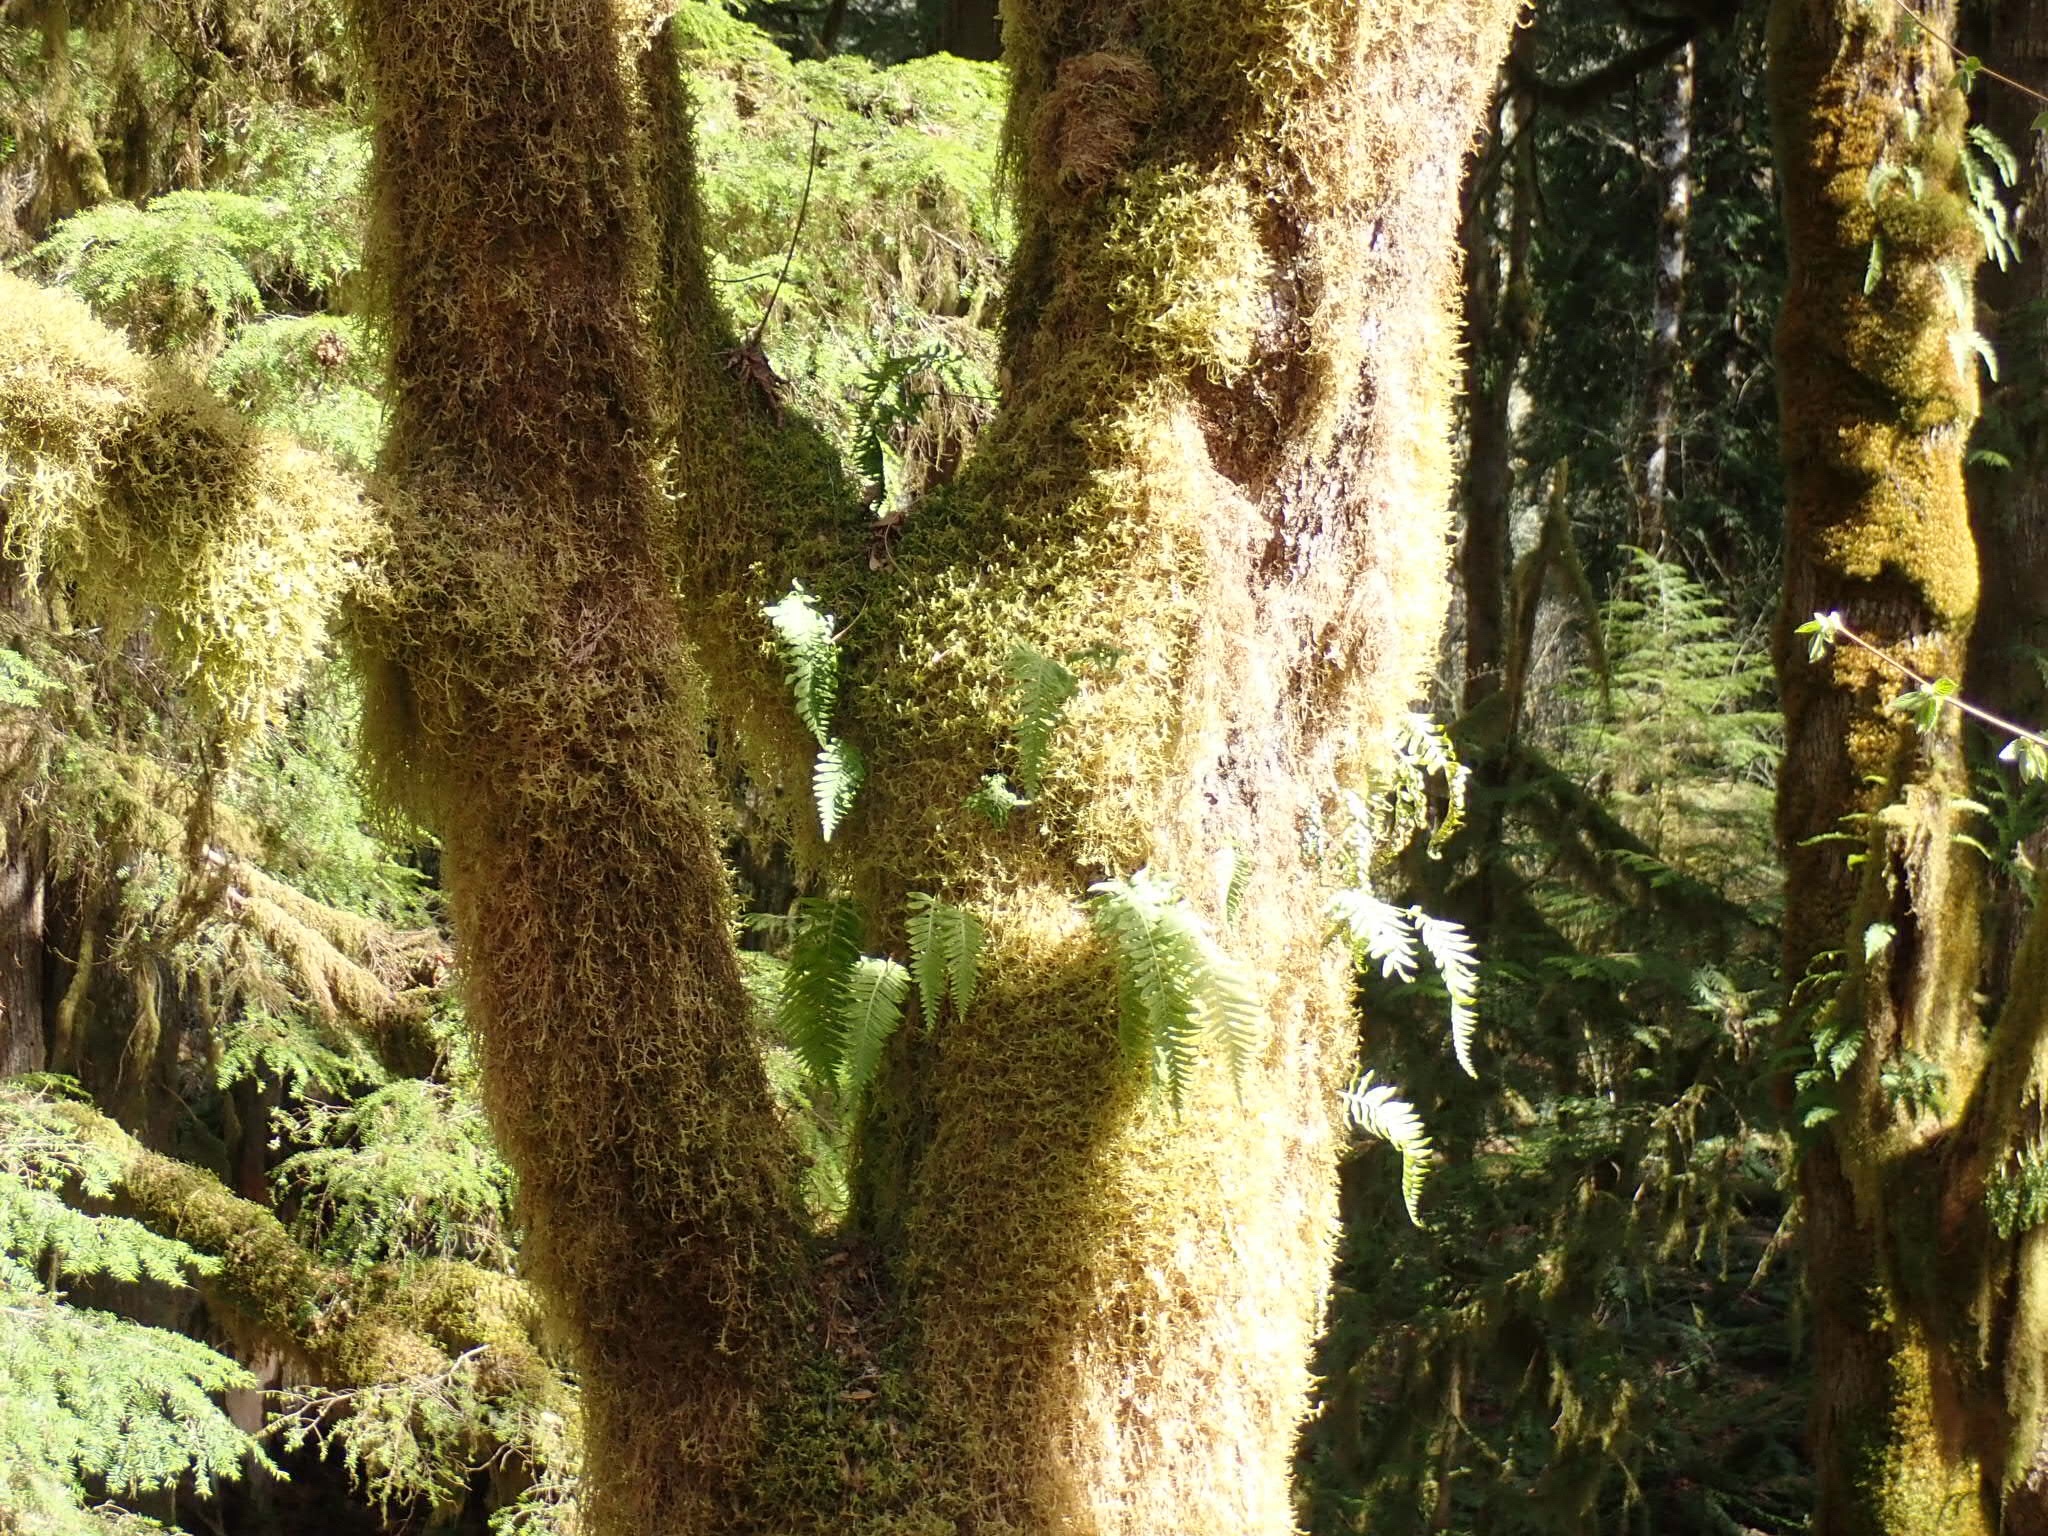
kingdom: Plantae
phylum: Tracheophyta
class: Polypodiopsida
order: Polypodiales
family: Polypodiaceae
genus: Polypodium
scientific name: Polypodium glycyrrhiza
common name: Licorice fern
